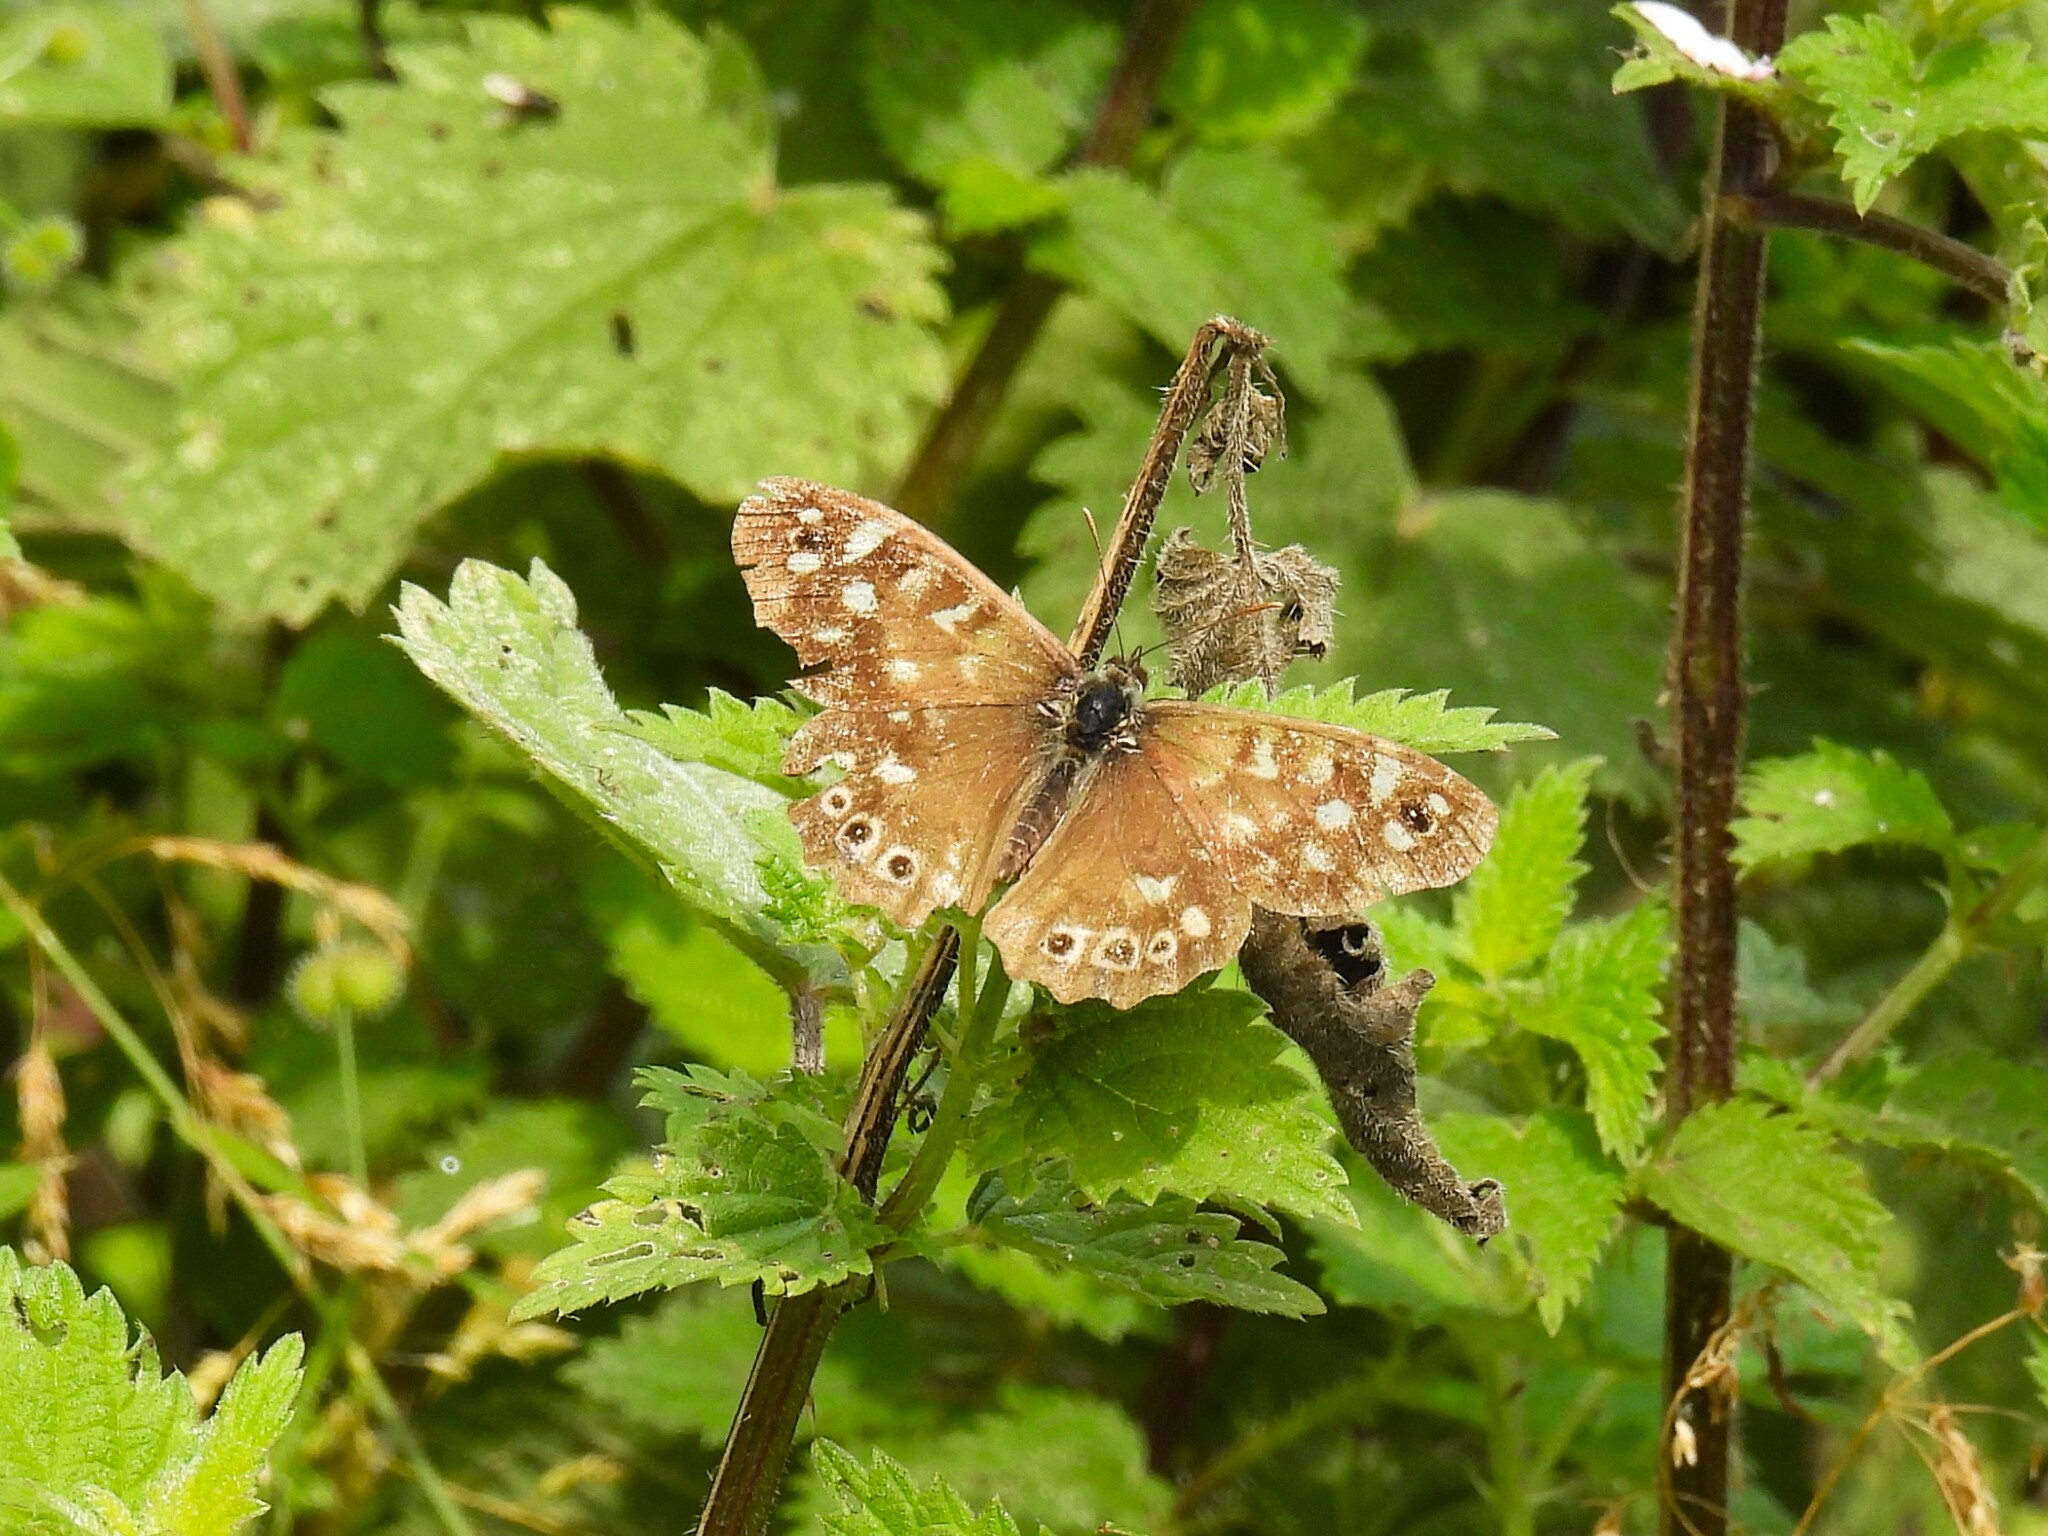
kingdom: Animalia
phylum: Arthropoda
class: Insecta
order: Lepidoptera
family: Nymphalidae
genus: Pararge
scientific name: Pararge aegeria
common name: Speckled wood
